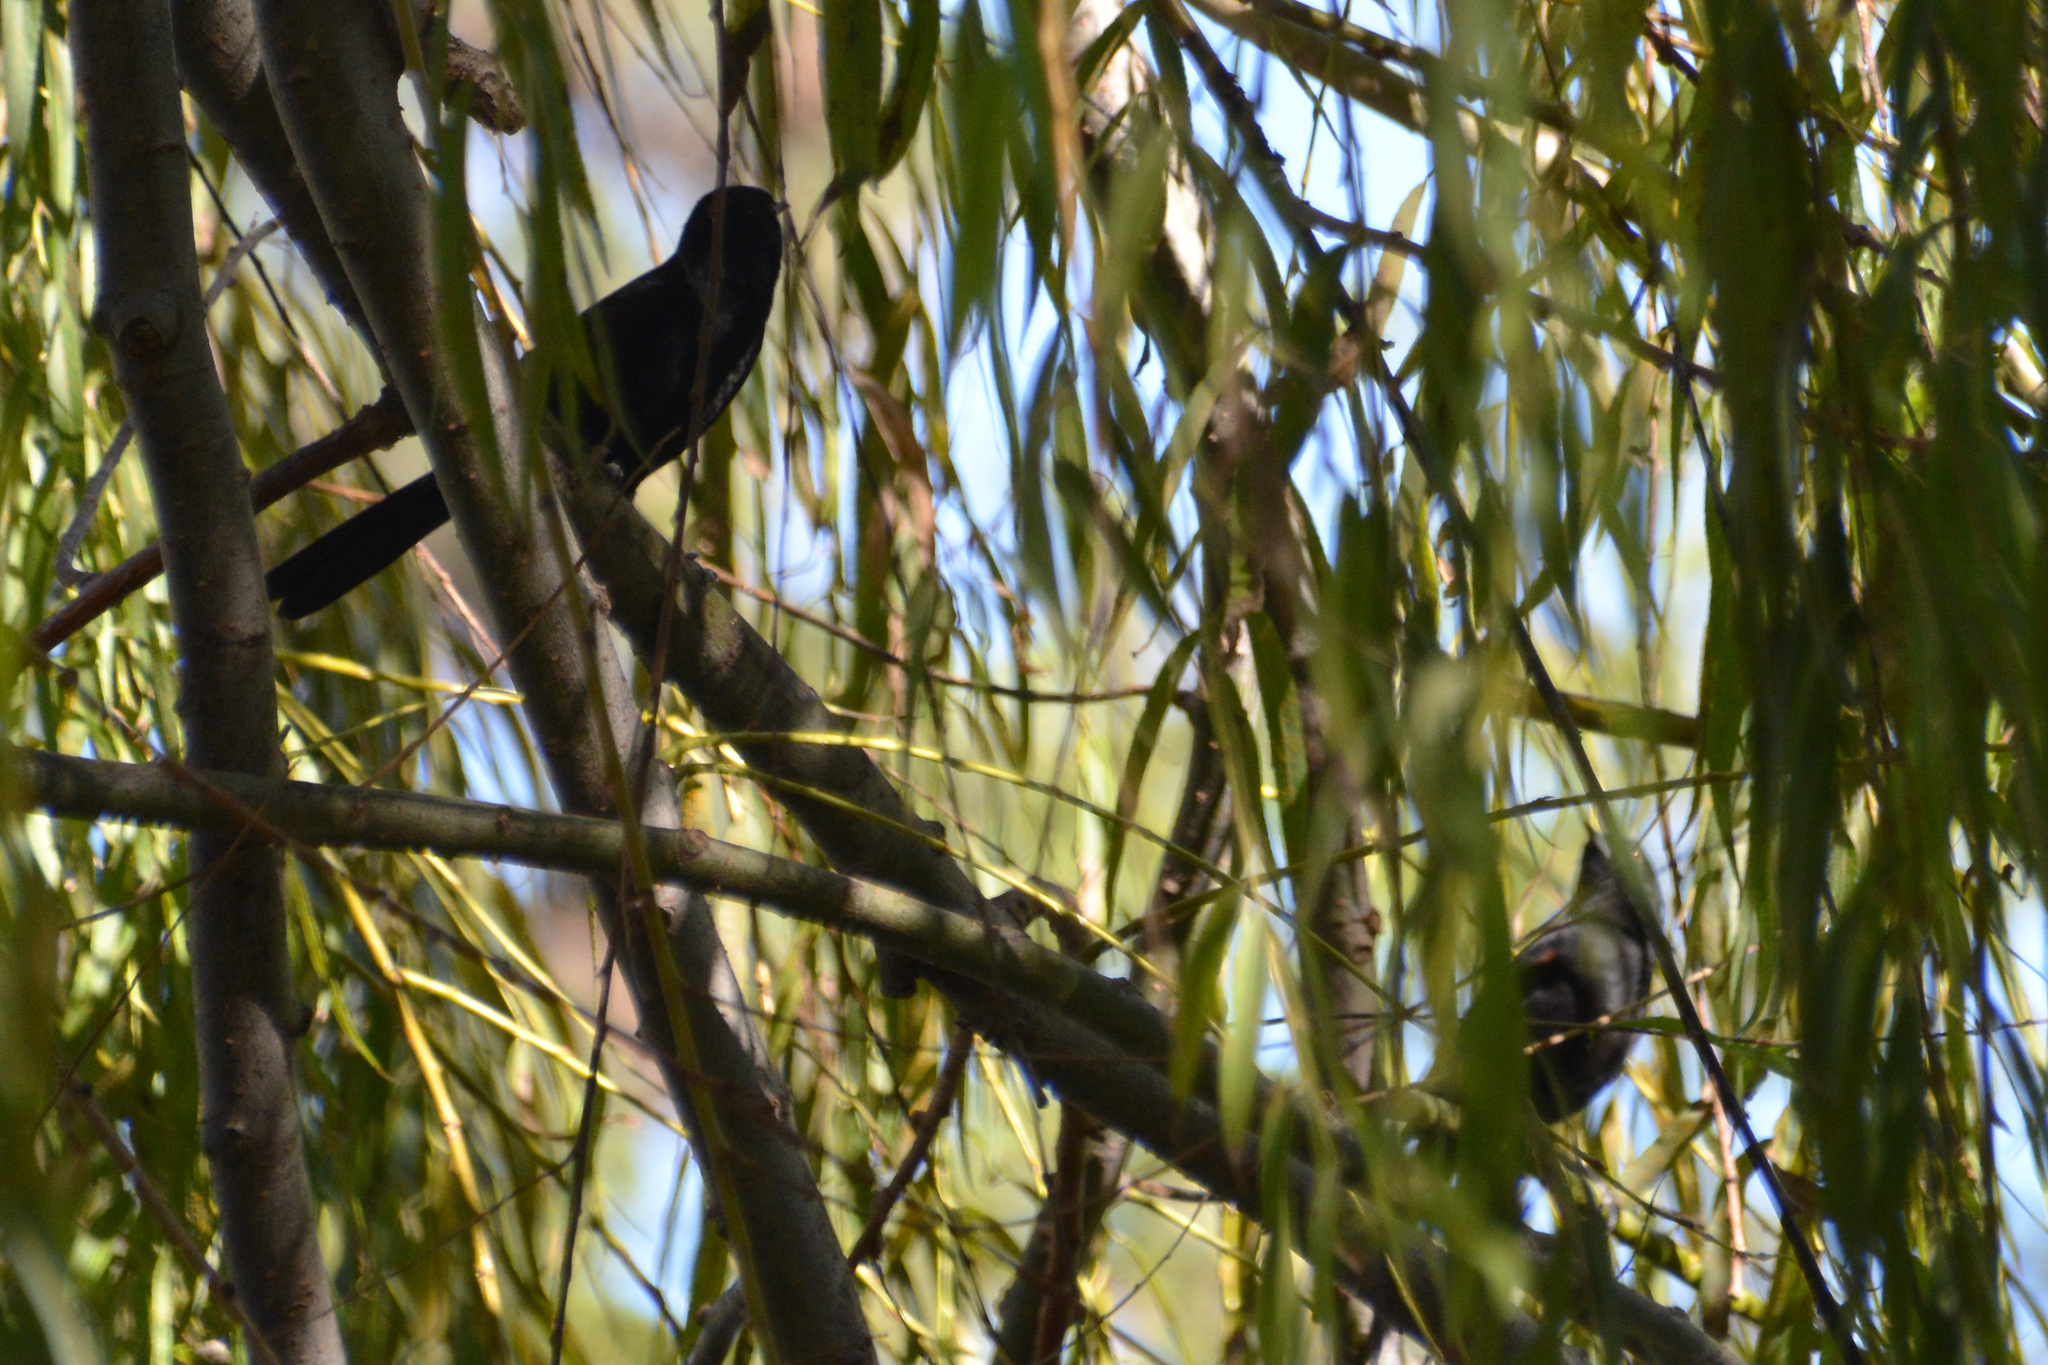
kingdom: Animalia
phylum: Chordata
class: Aves
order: Passeriformes
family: Icteridae
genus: Icterus
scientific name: Icterus cayanensis
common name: Epaulet oriole
